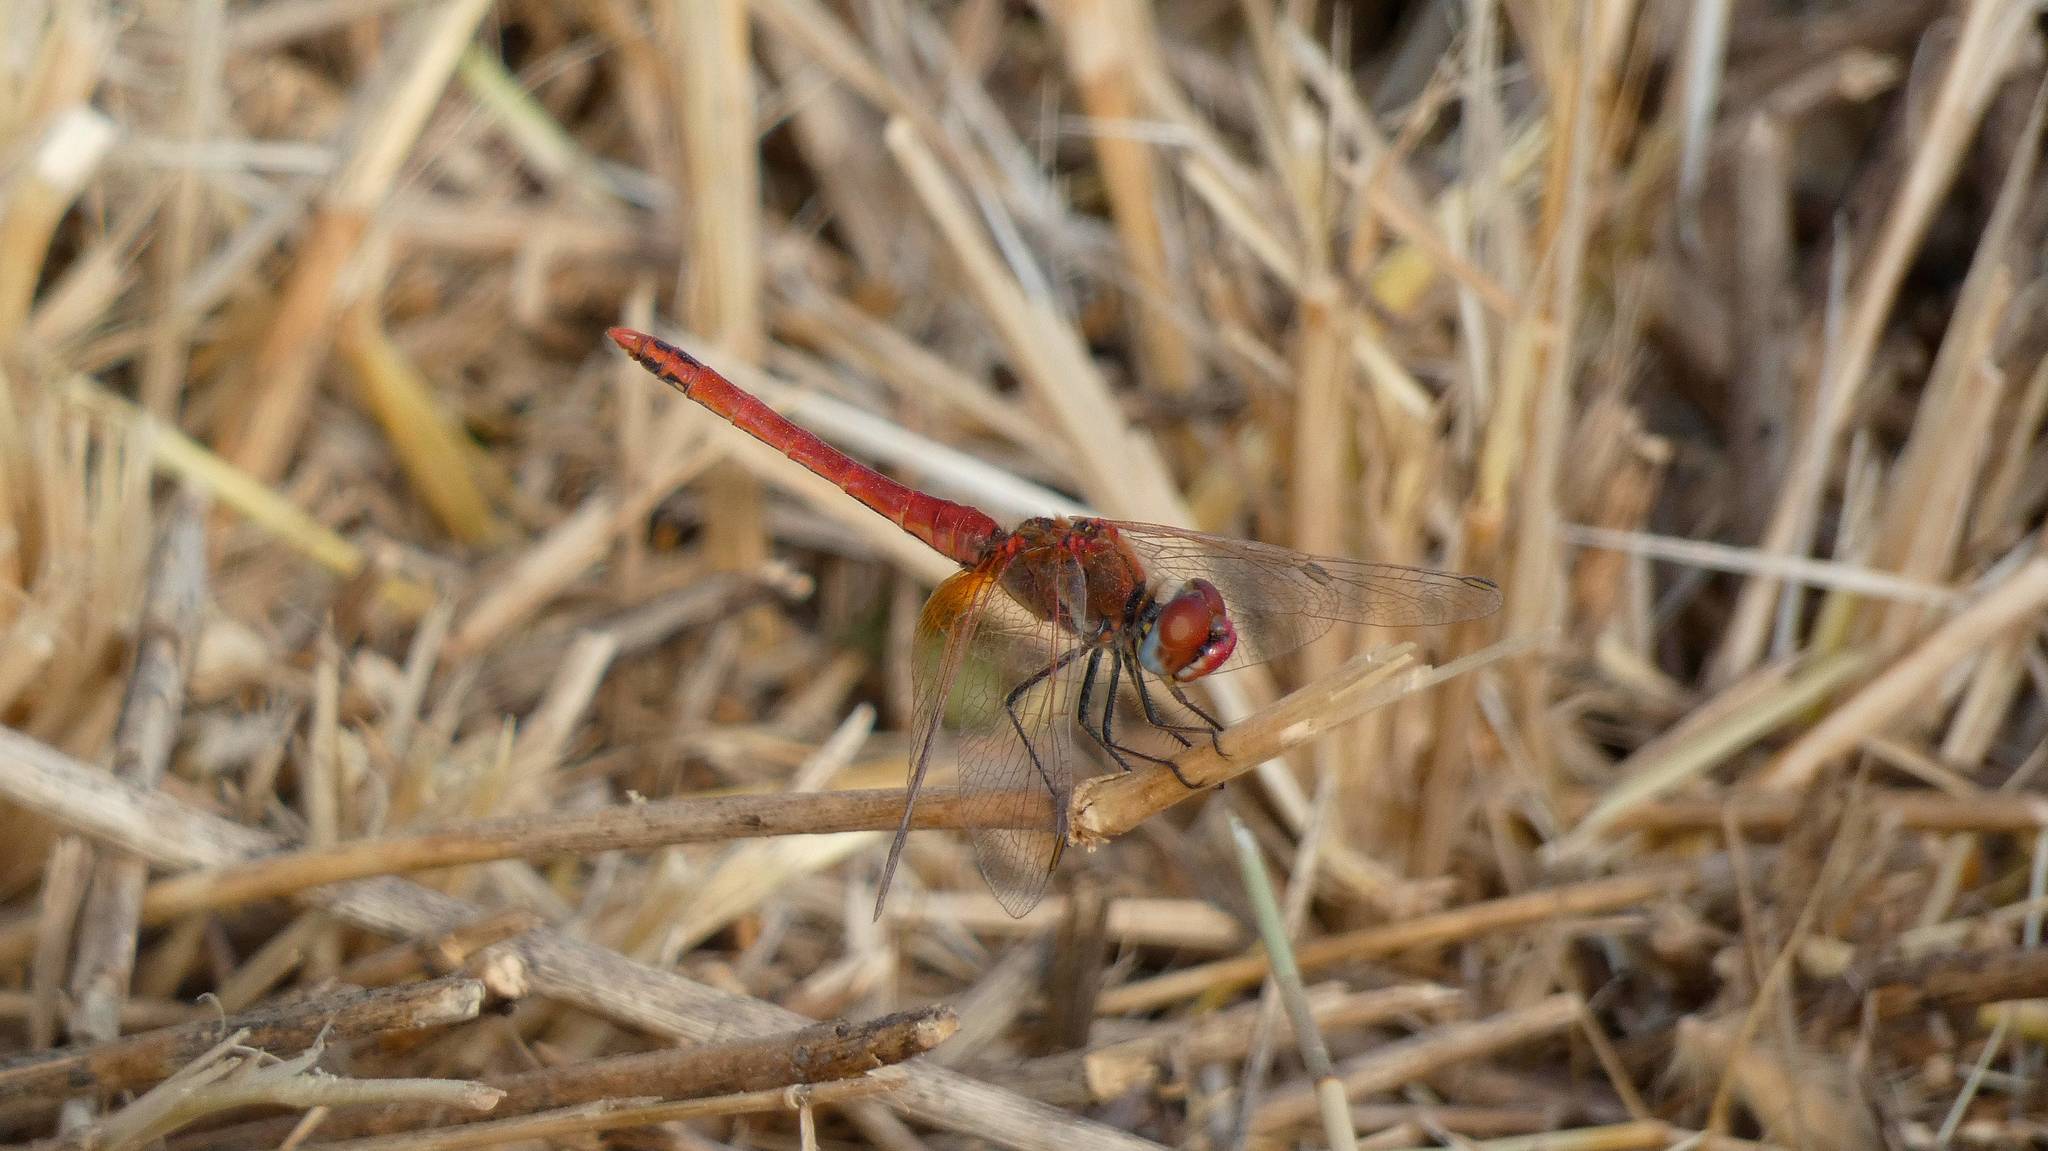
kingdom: Animalia
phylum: Arthropoda
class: Insecta
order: Odonata
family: Libellulidae
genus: Sympetrum
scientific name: Sympetrum fonscolombii
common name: Red-veined darter
